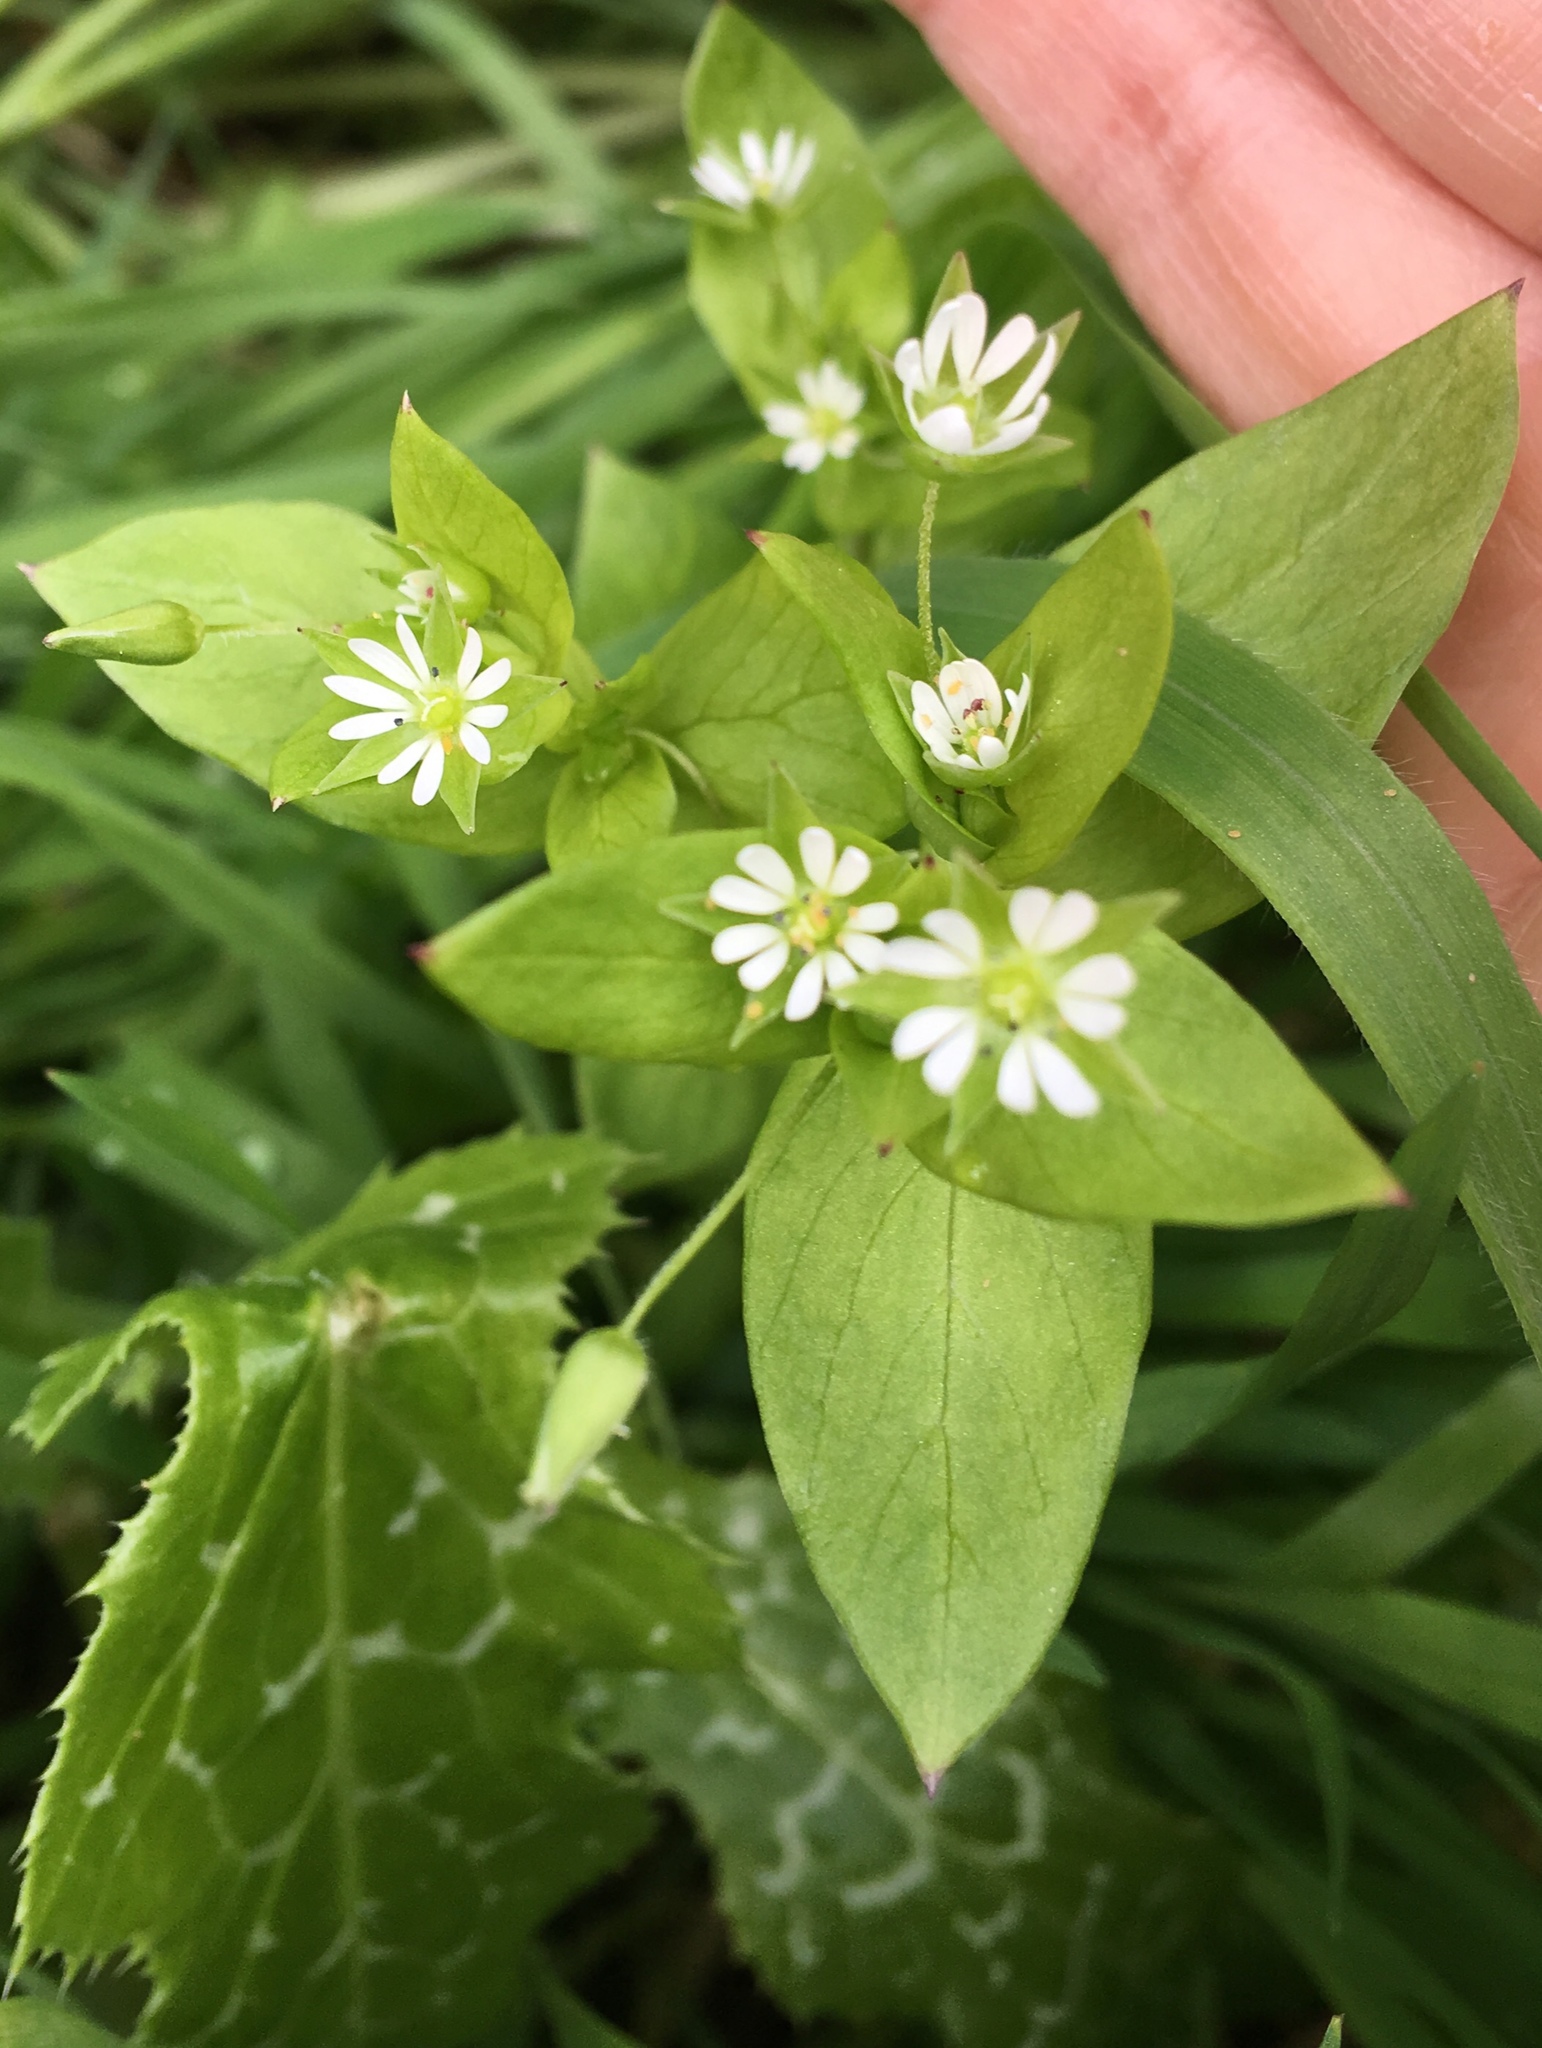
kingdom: Plantae
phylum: Tracheophyta
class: Magnoliopsida
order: Caryophyllales
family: Caryophyllaceae
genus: Stellaria
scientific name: Stellaria media
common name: Common chickweed
